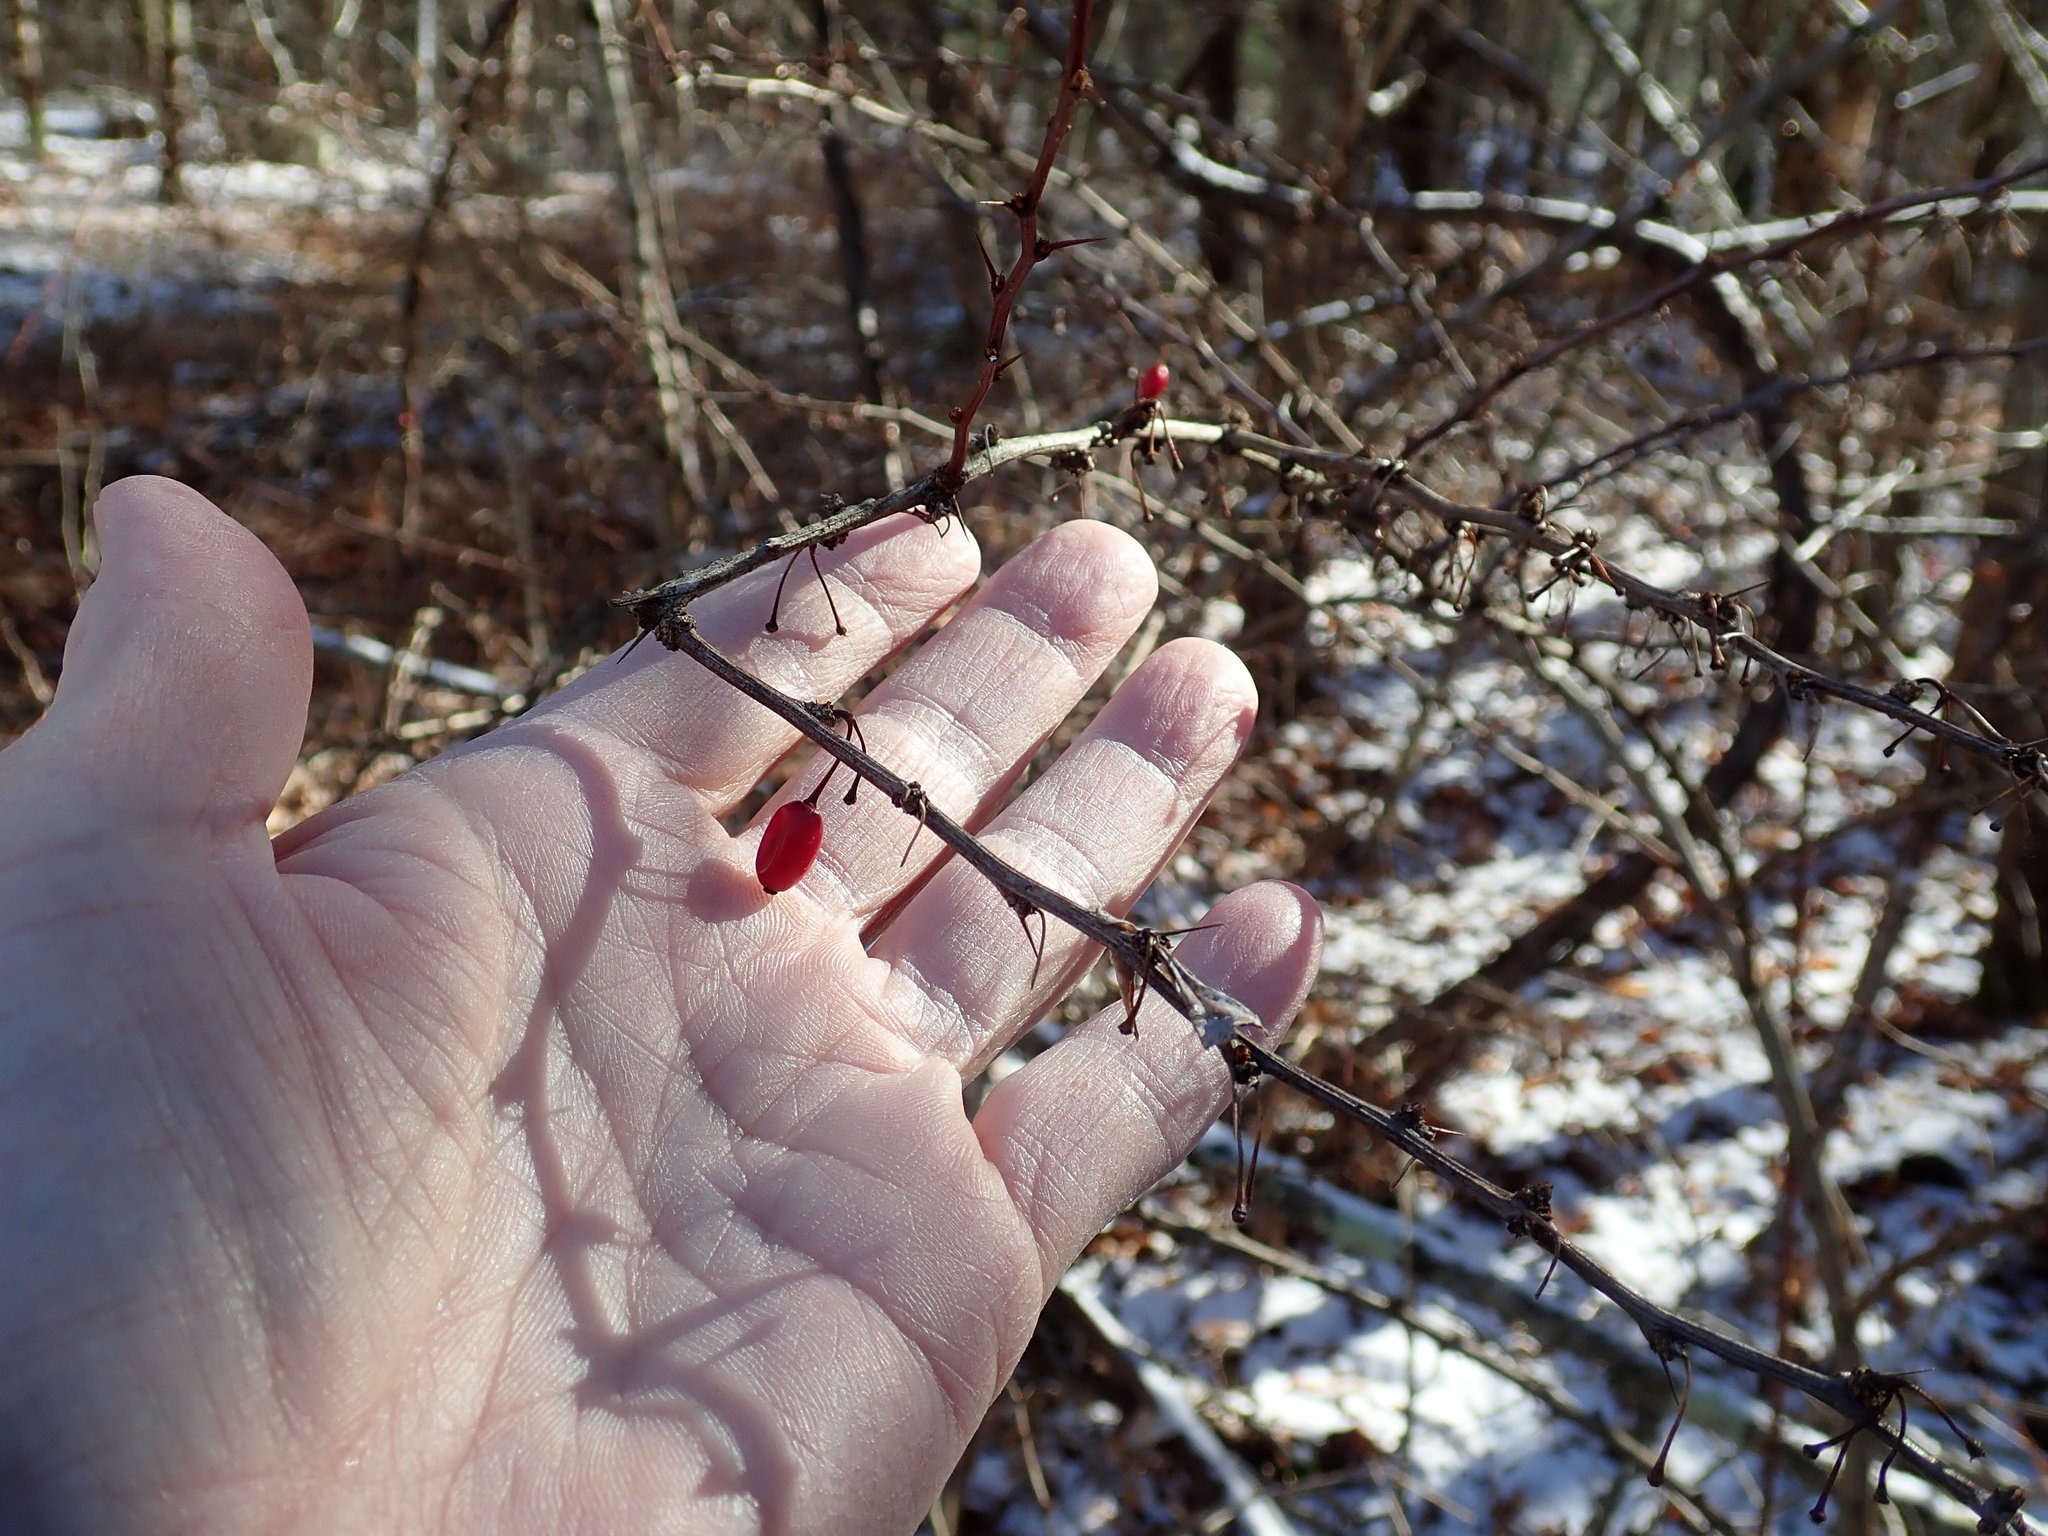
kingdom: Plantae
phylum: Tracheophyta
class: Magnoliopsida
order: Ranunculales
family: Berberidaceae
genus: Berberis
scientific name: Berberis thunbergii
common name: Japanese barberry
